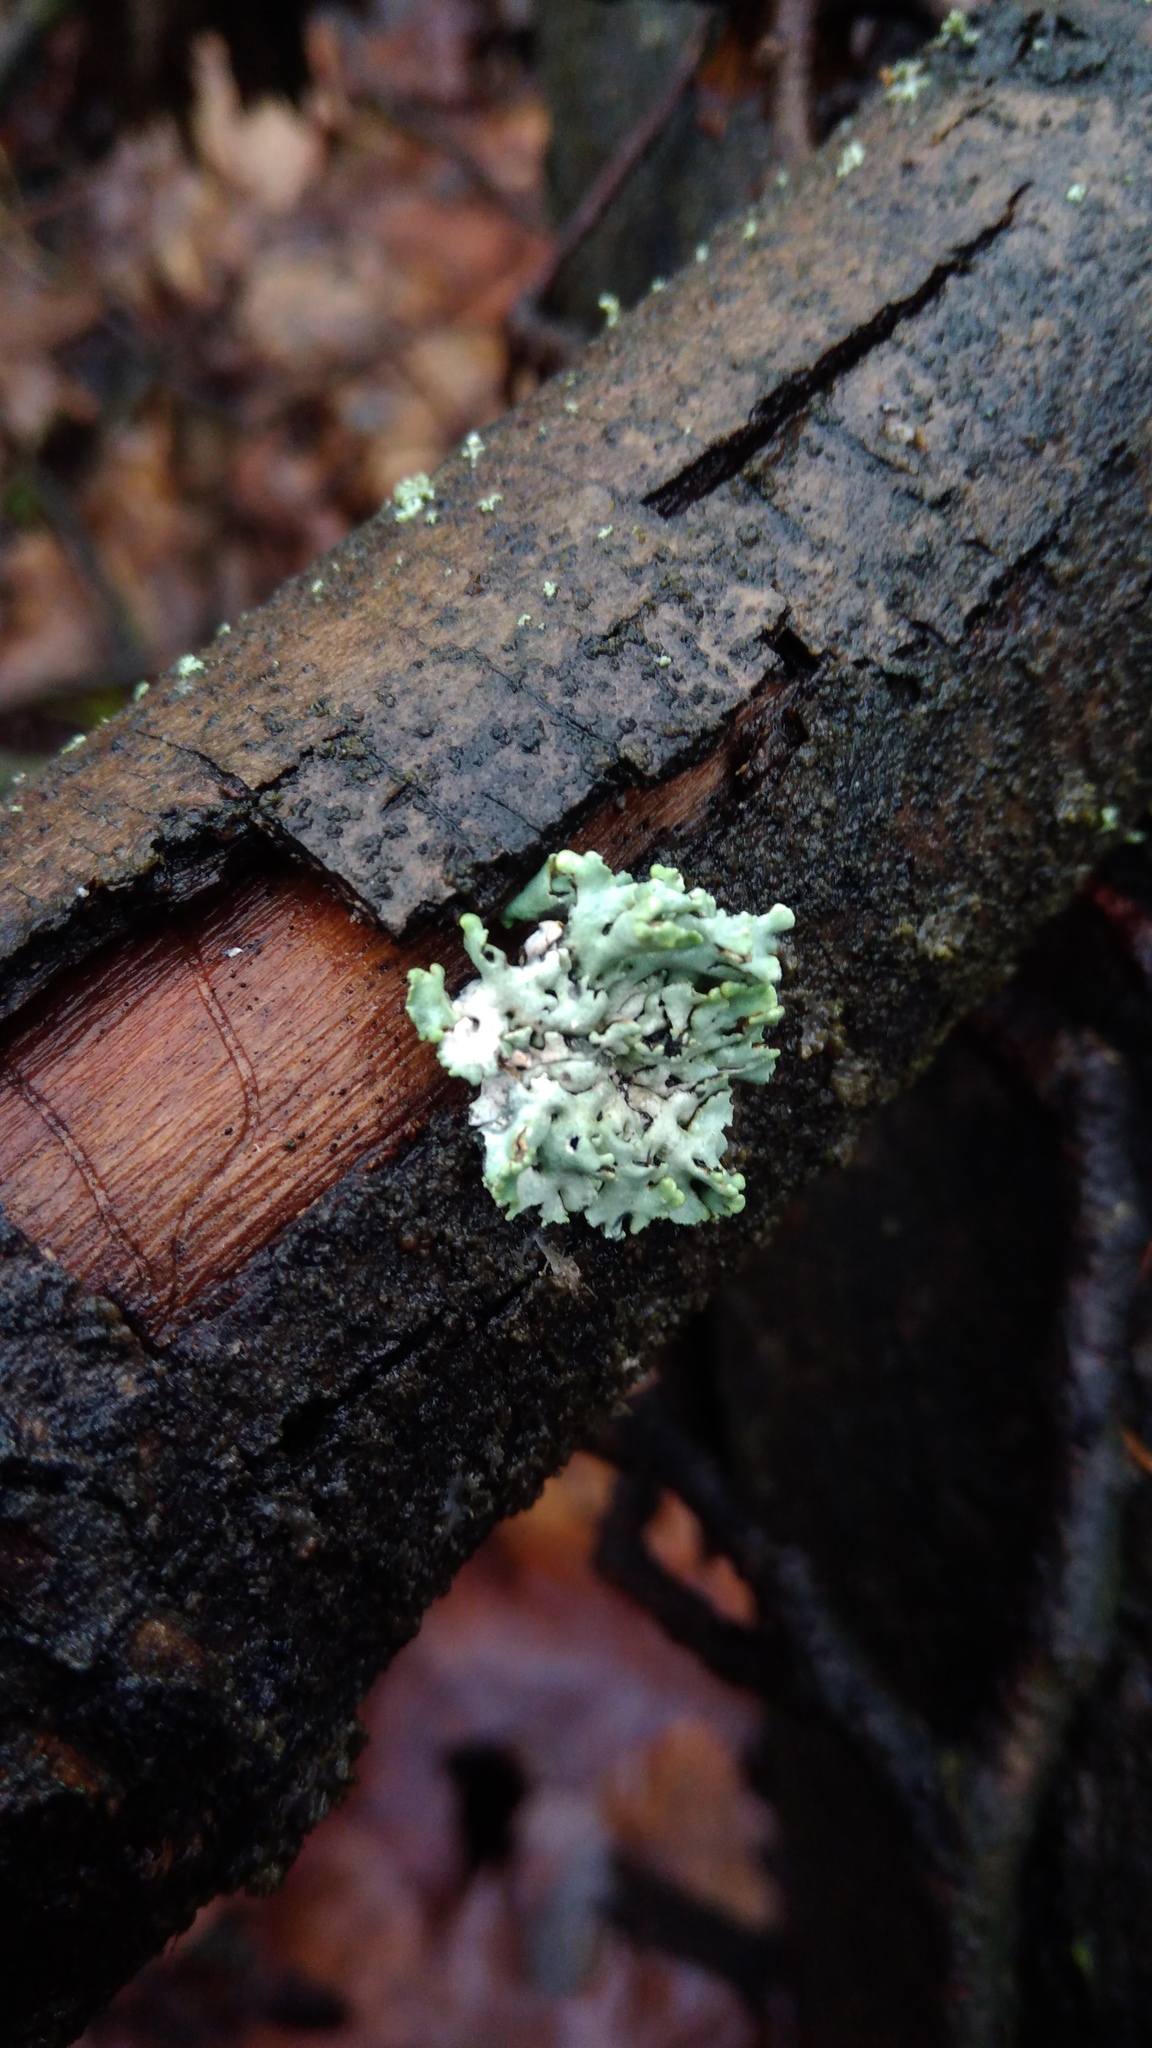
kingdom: Fungi
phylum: Ascomycota
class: Lecanoromycetes
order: Lecanorales
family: Parmeliaceae
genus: Hypogymnia
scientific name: Hypogymnia physodes
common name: Dark crottle
